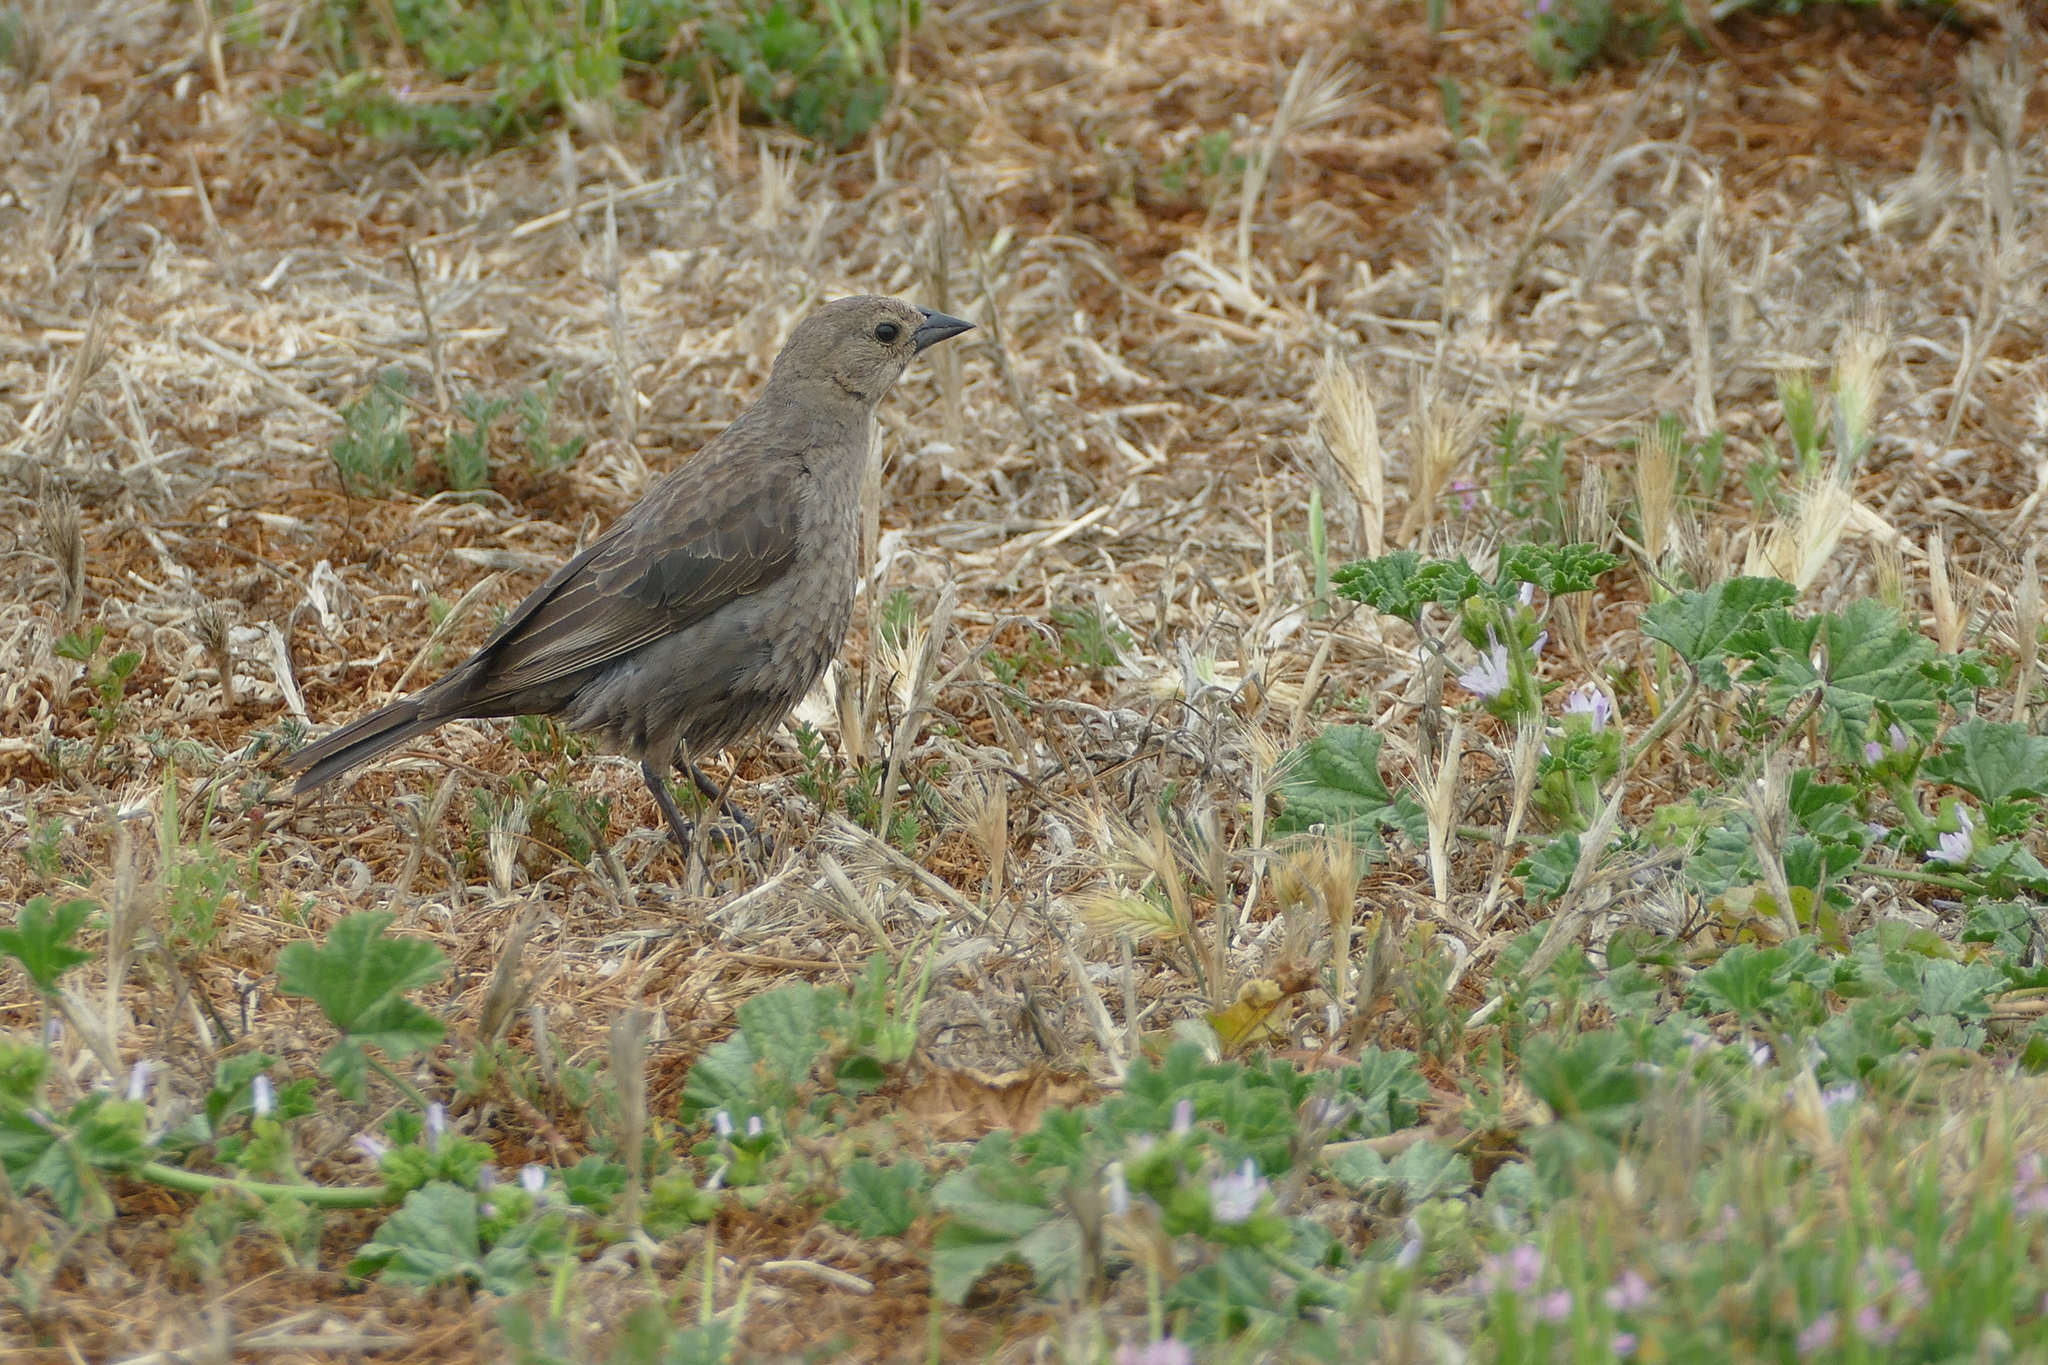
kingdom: Animalia
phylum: Chordata
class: Aves
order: Passeriformes
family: Icteridae
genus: Molothrus
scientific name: Molothrus ater
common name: Brown-headed cowbird
